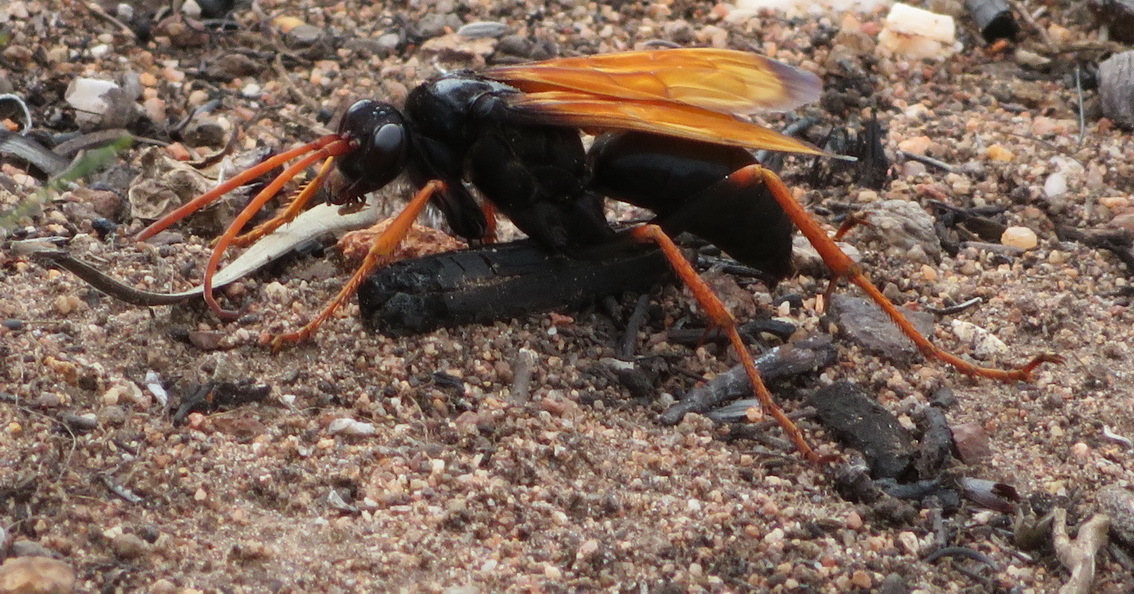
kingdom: Animalia
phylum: Arthropoda
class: Insecta
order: Hymenoptera
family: Pompilidae
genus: Tachypompilus
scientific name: Tachypompilus ignitus
